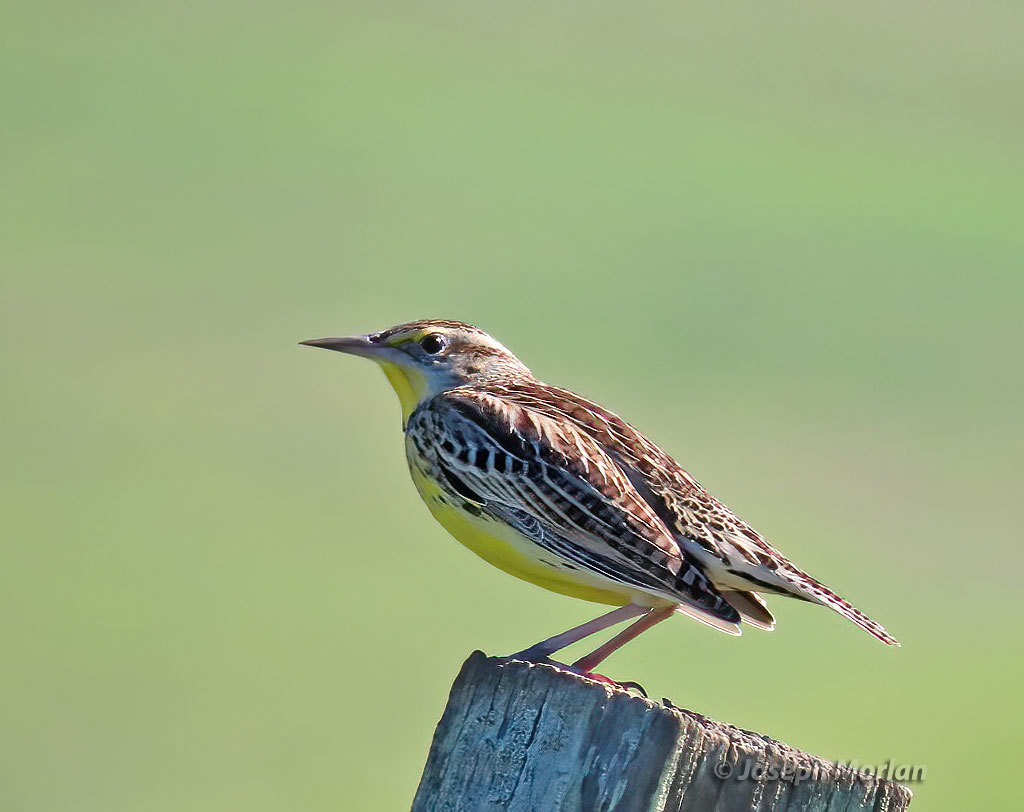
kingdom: Animalia
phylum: Chordata
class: Aves
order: Passeriformes
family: Icteridae
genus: Sturnella
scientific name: Sturnella neglecta
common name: Western meadowlark
